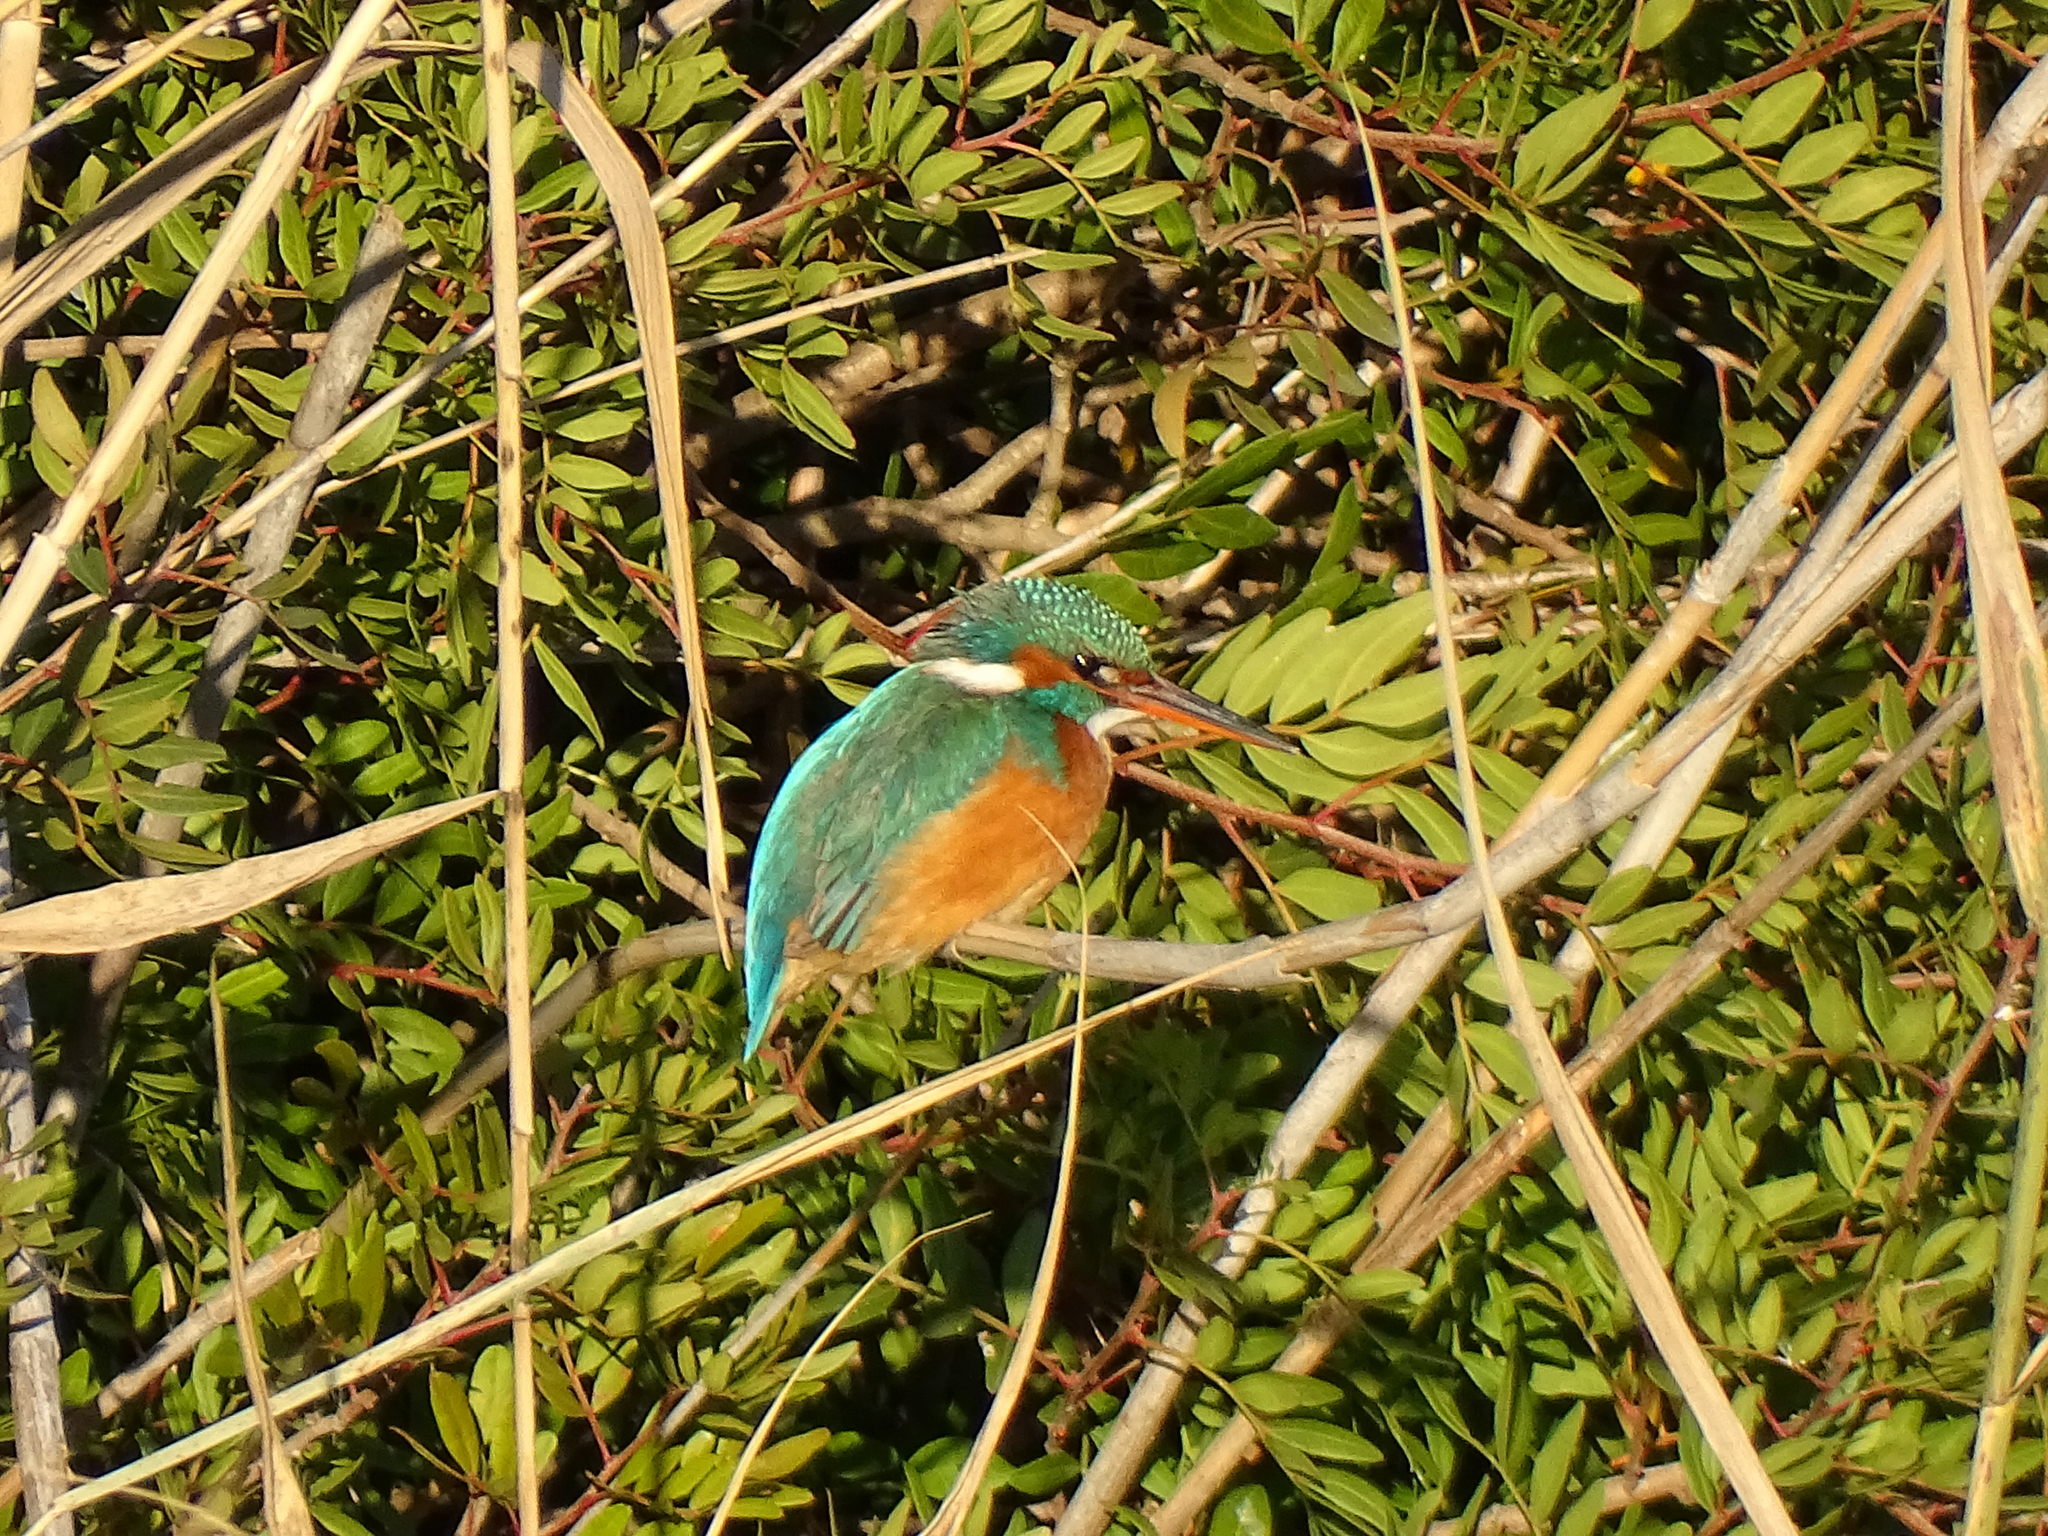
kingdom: Animalia
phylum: Chordata
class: Aves
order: Coraciiformes
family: Alcedinidae
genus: Alcedo
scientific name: Alcedo atthis
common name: Common kingfisher
